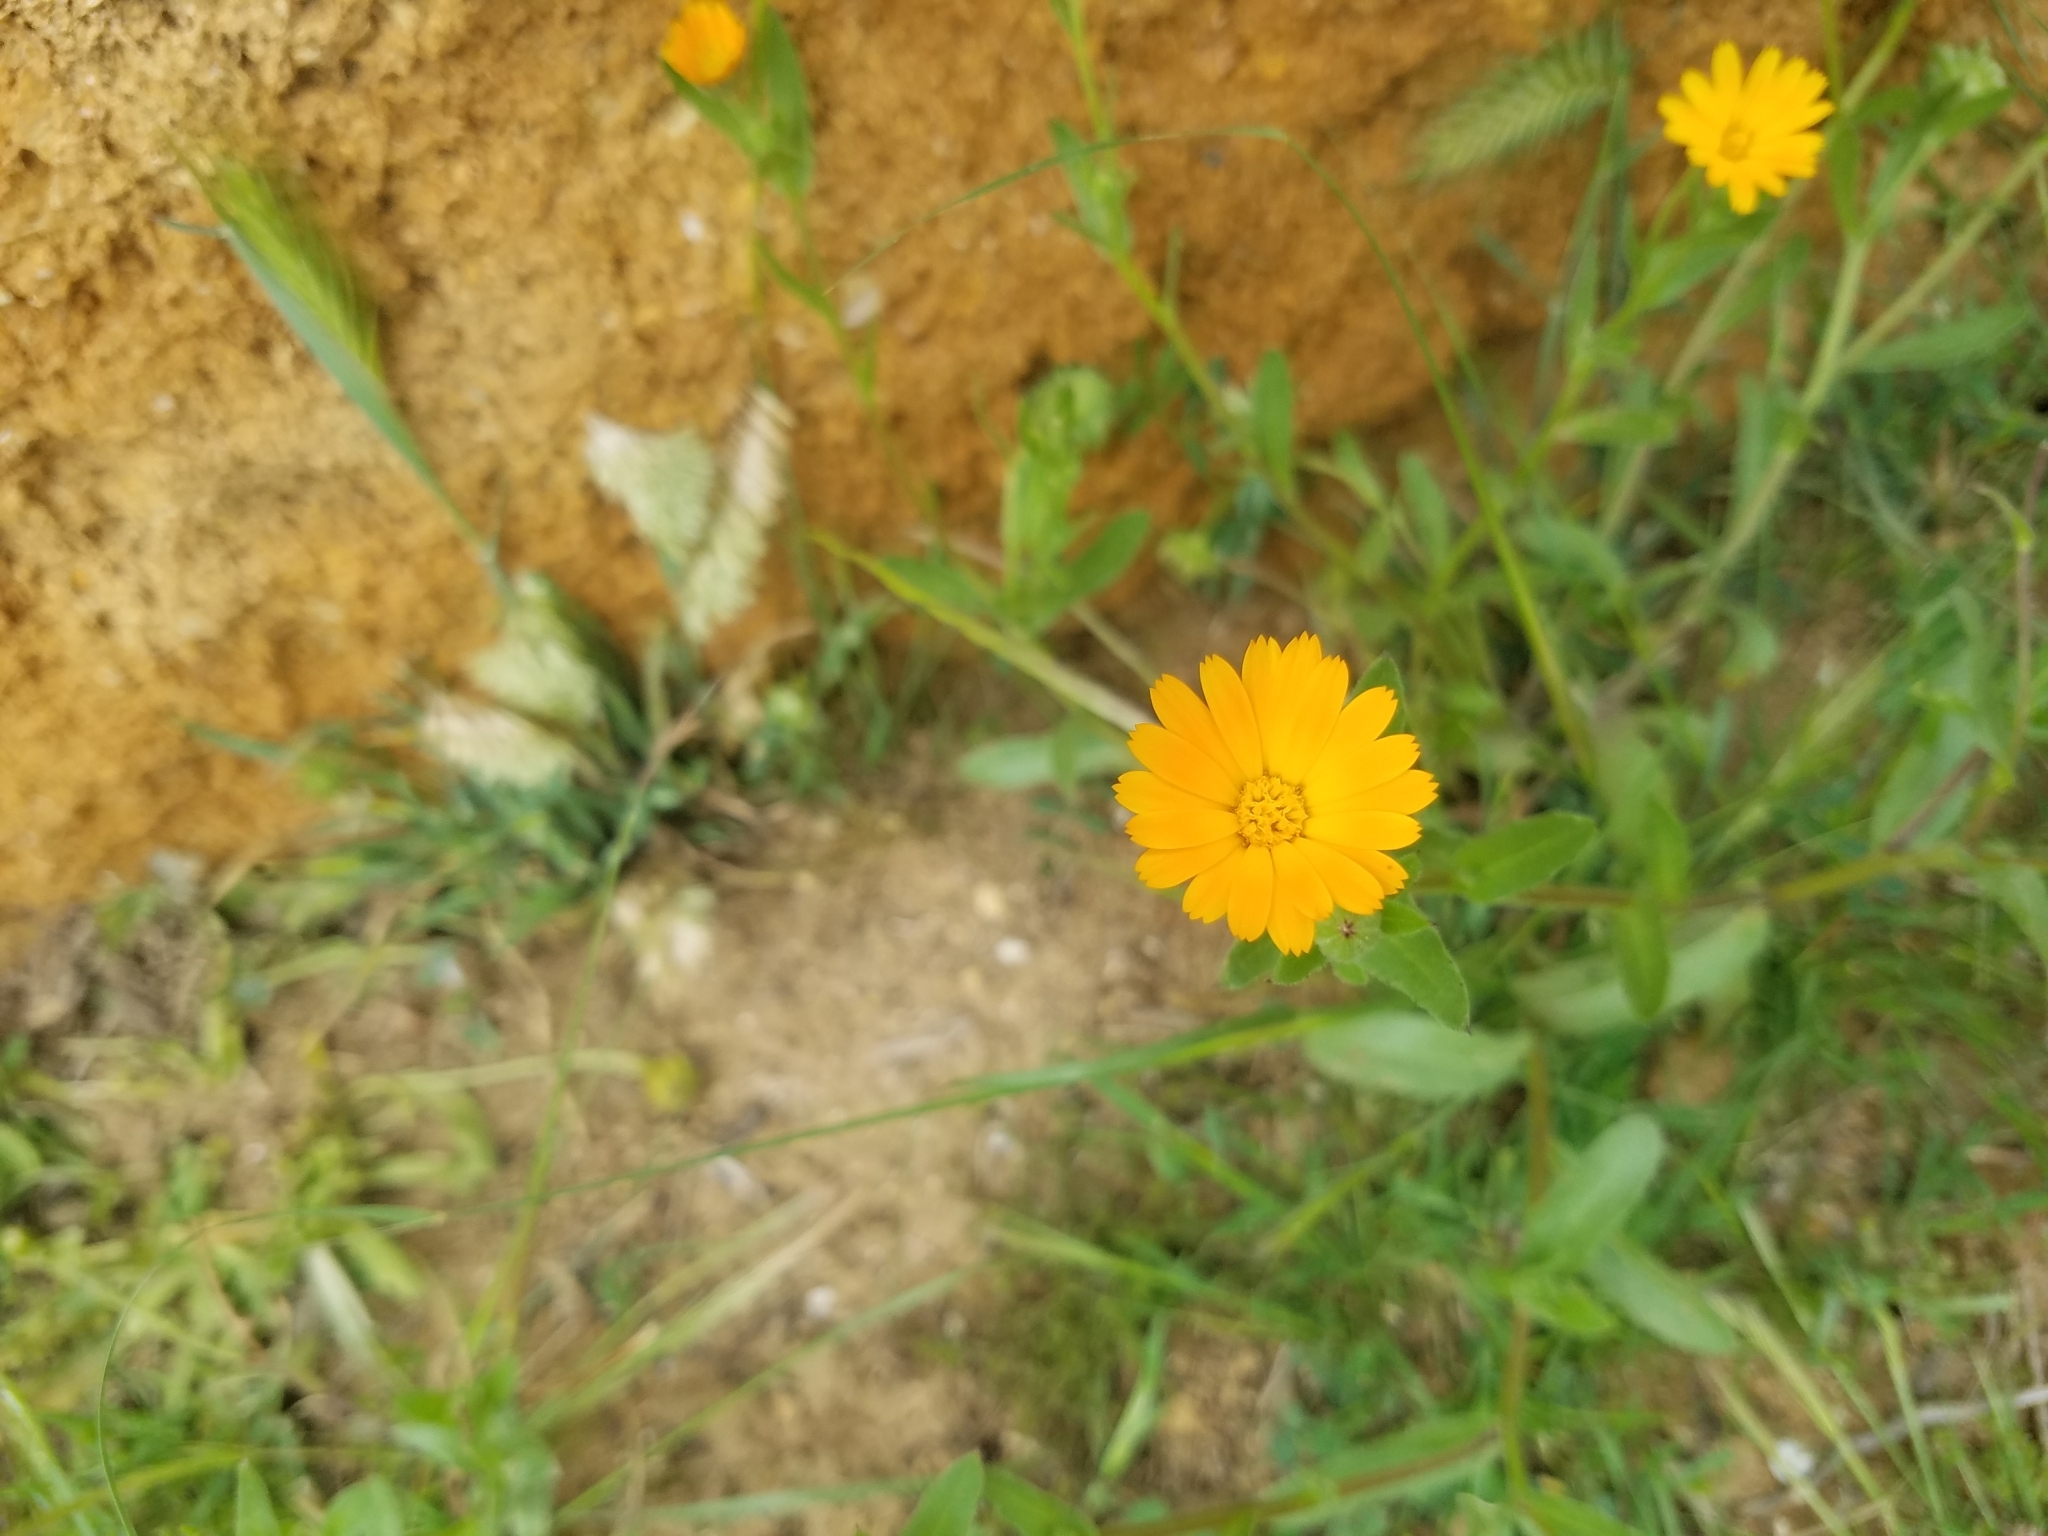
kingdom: Plantae
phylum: Tracheophyta
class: Magnoliopsida
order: Asterales
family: Asteraceae
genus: Calendula
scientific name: Calendula arvensis
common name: Field marigold
